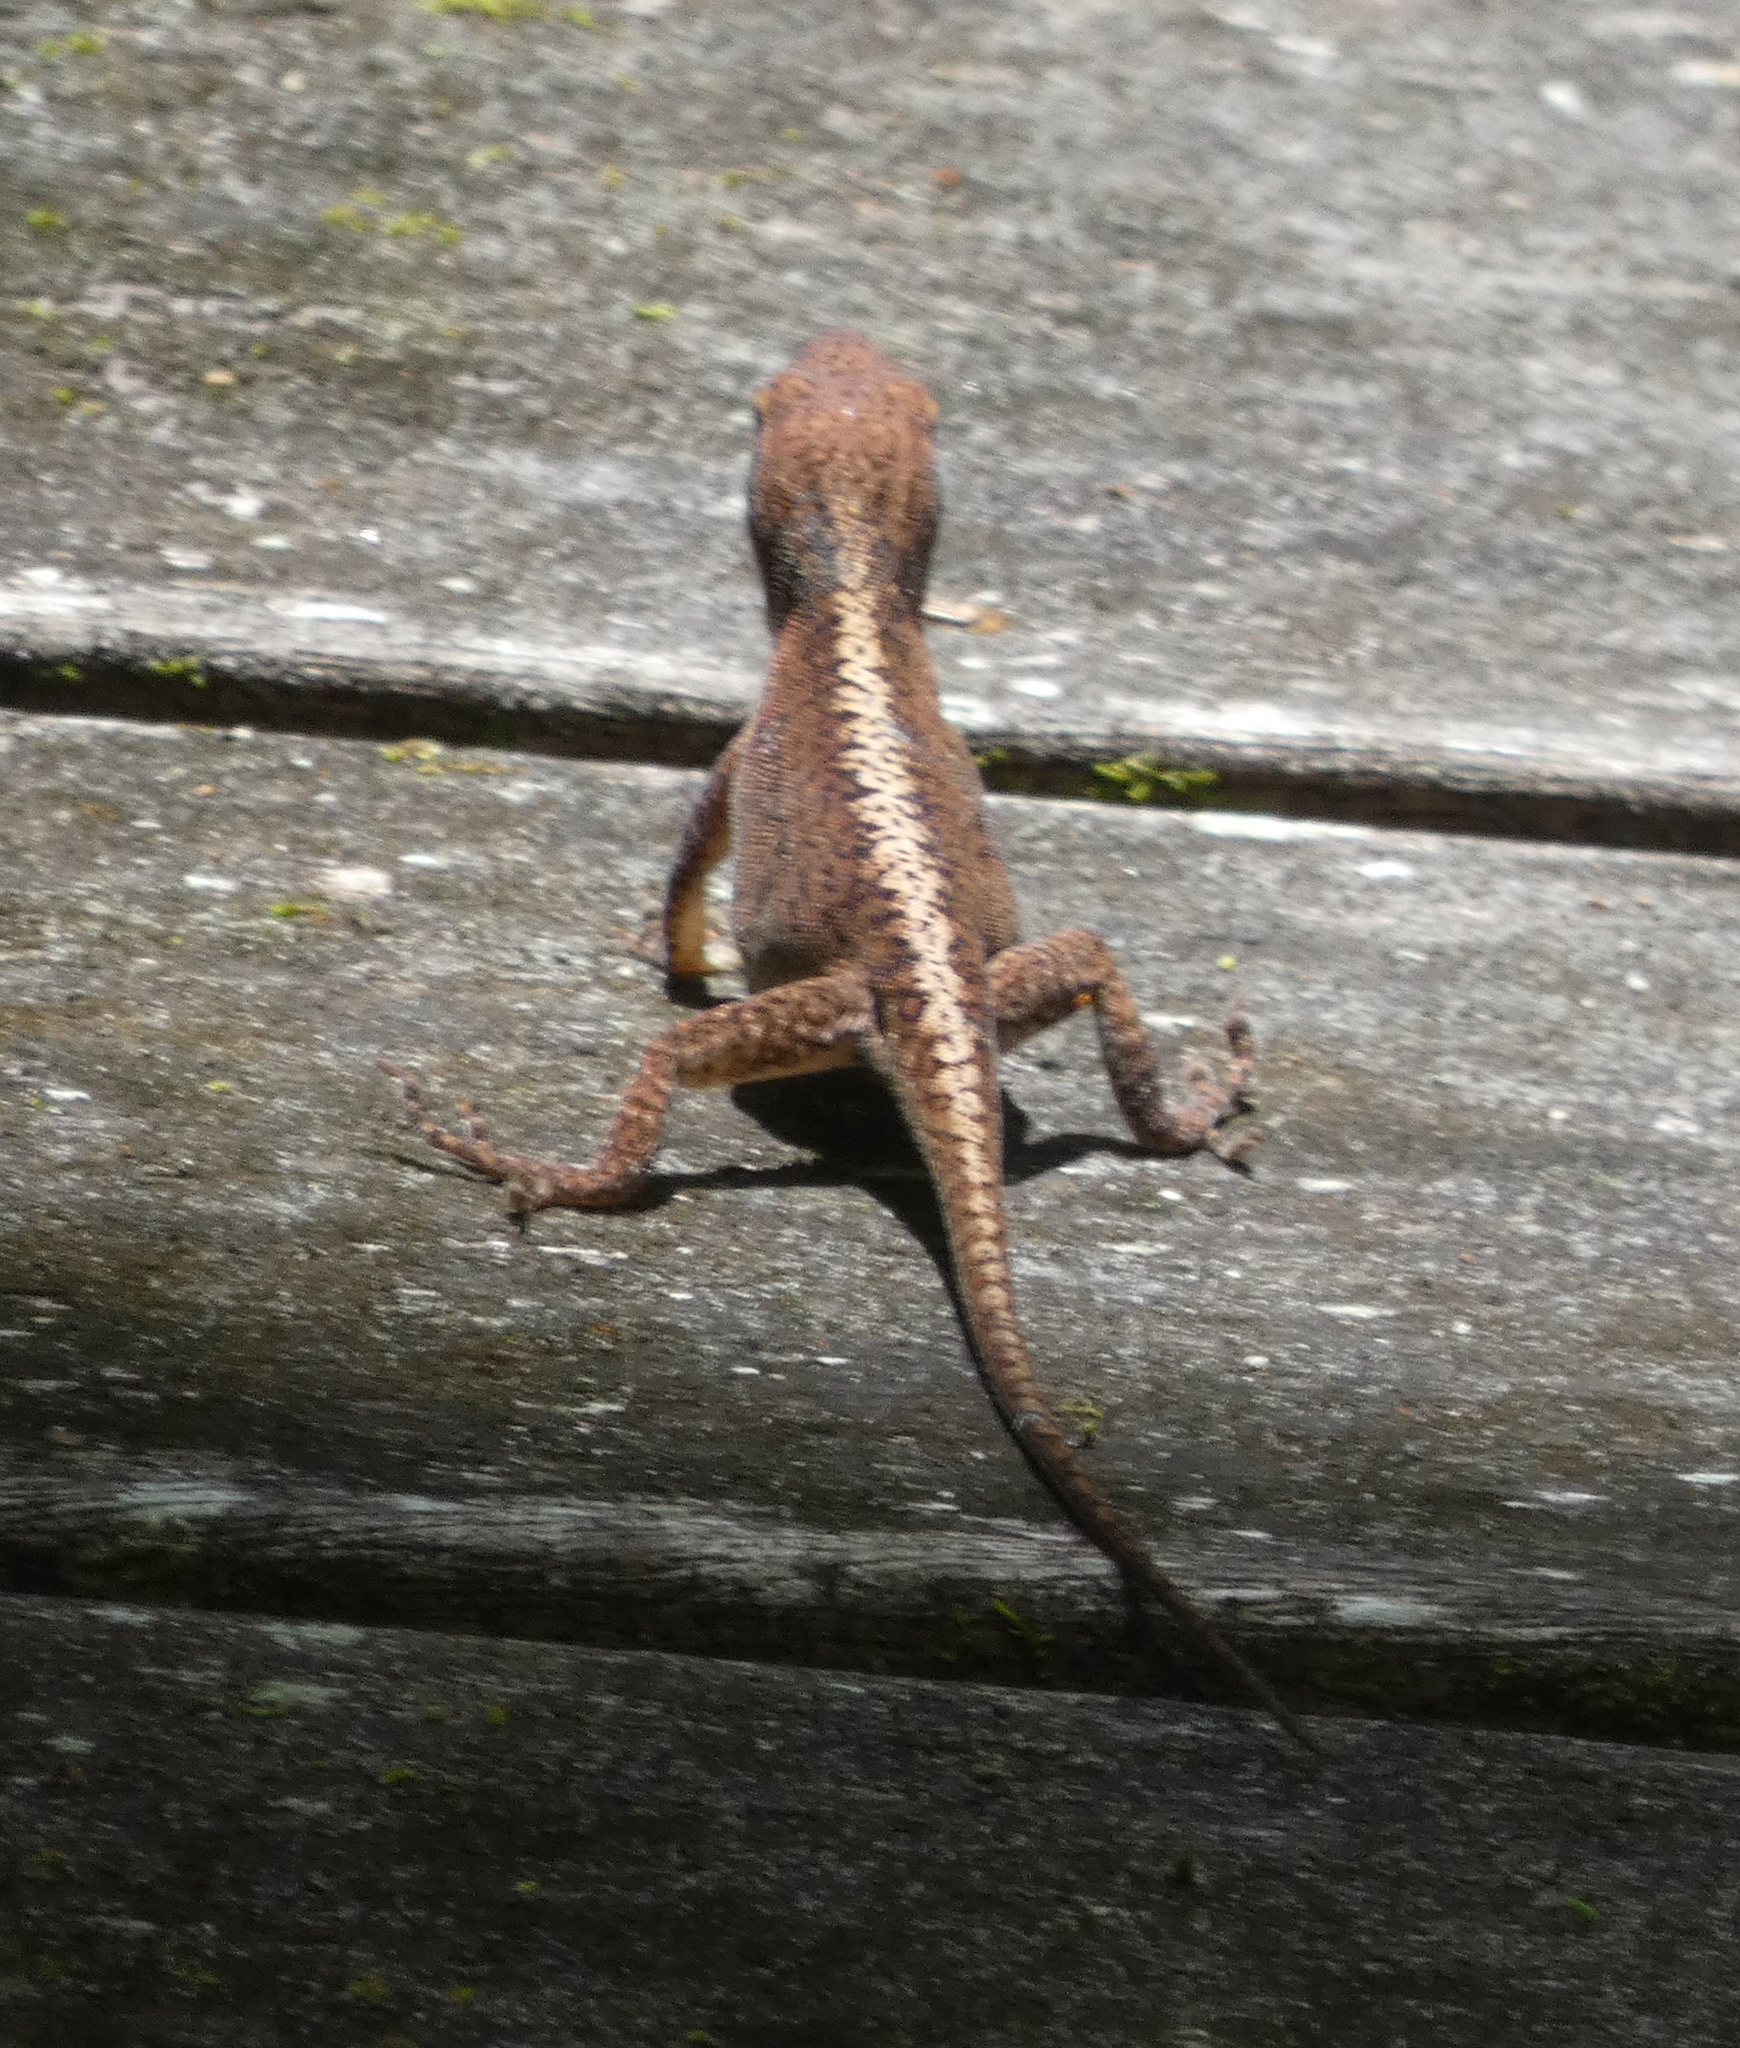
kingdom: Animalia
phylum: Chordata
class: Squamata
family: Dactyloidae
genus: Anolis
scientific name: Anolis carolinensis
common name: Green anole
